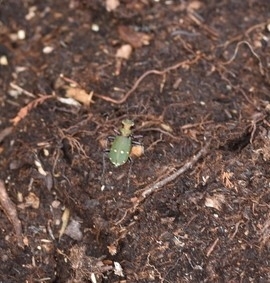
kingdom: Animalia
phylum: Arthropoda
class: Insecta
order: Coleoptera
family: Carabidae
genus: Cicindela
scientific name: Cicindela campestris
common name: Common tiger beetle
